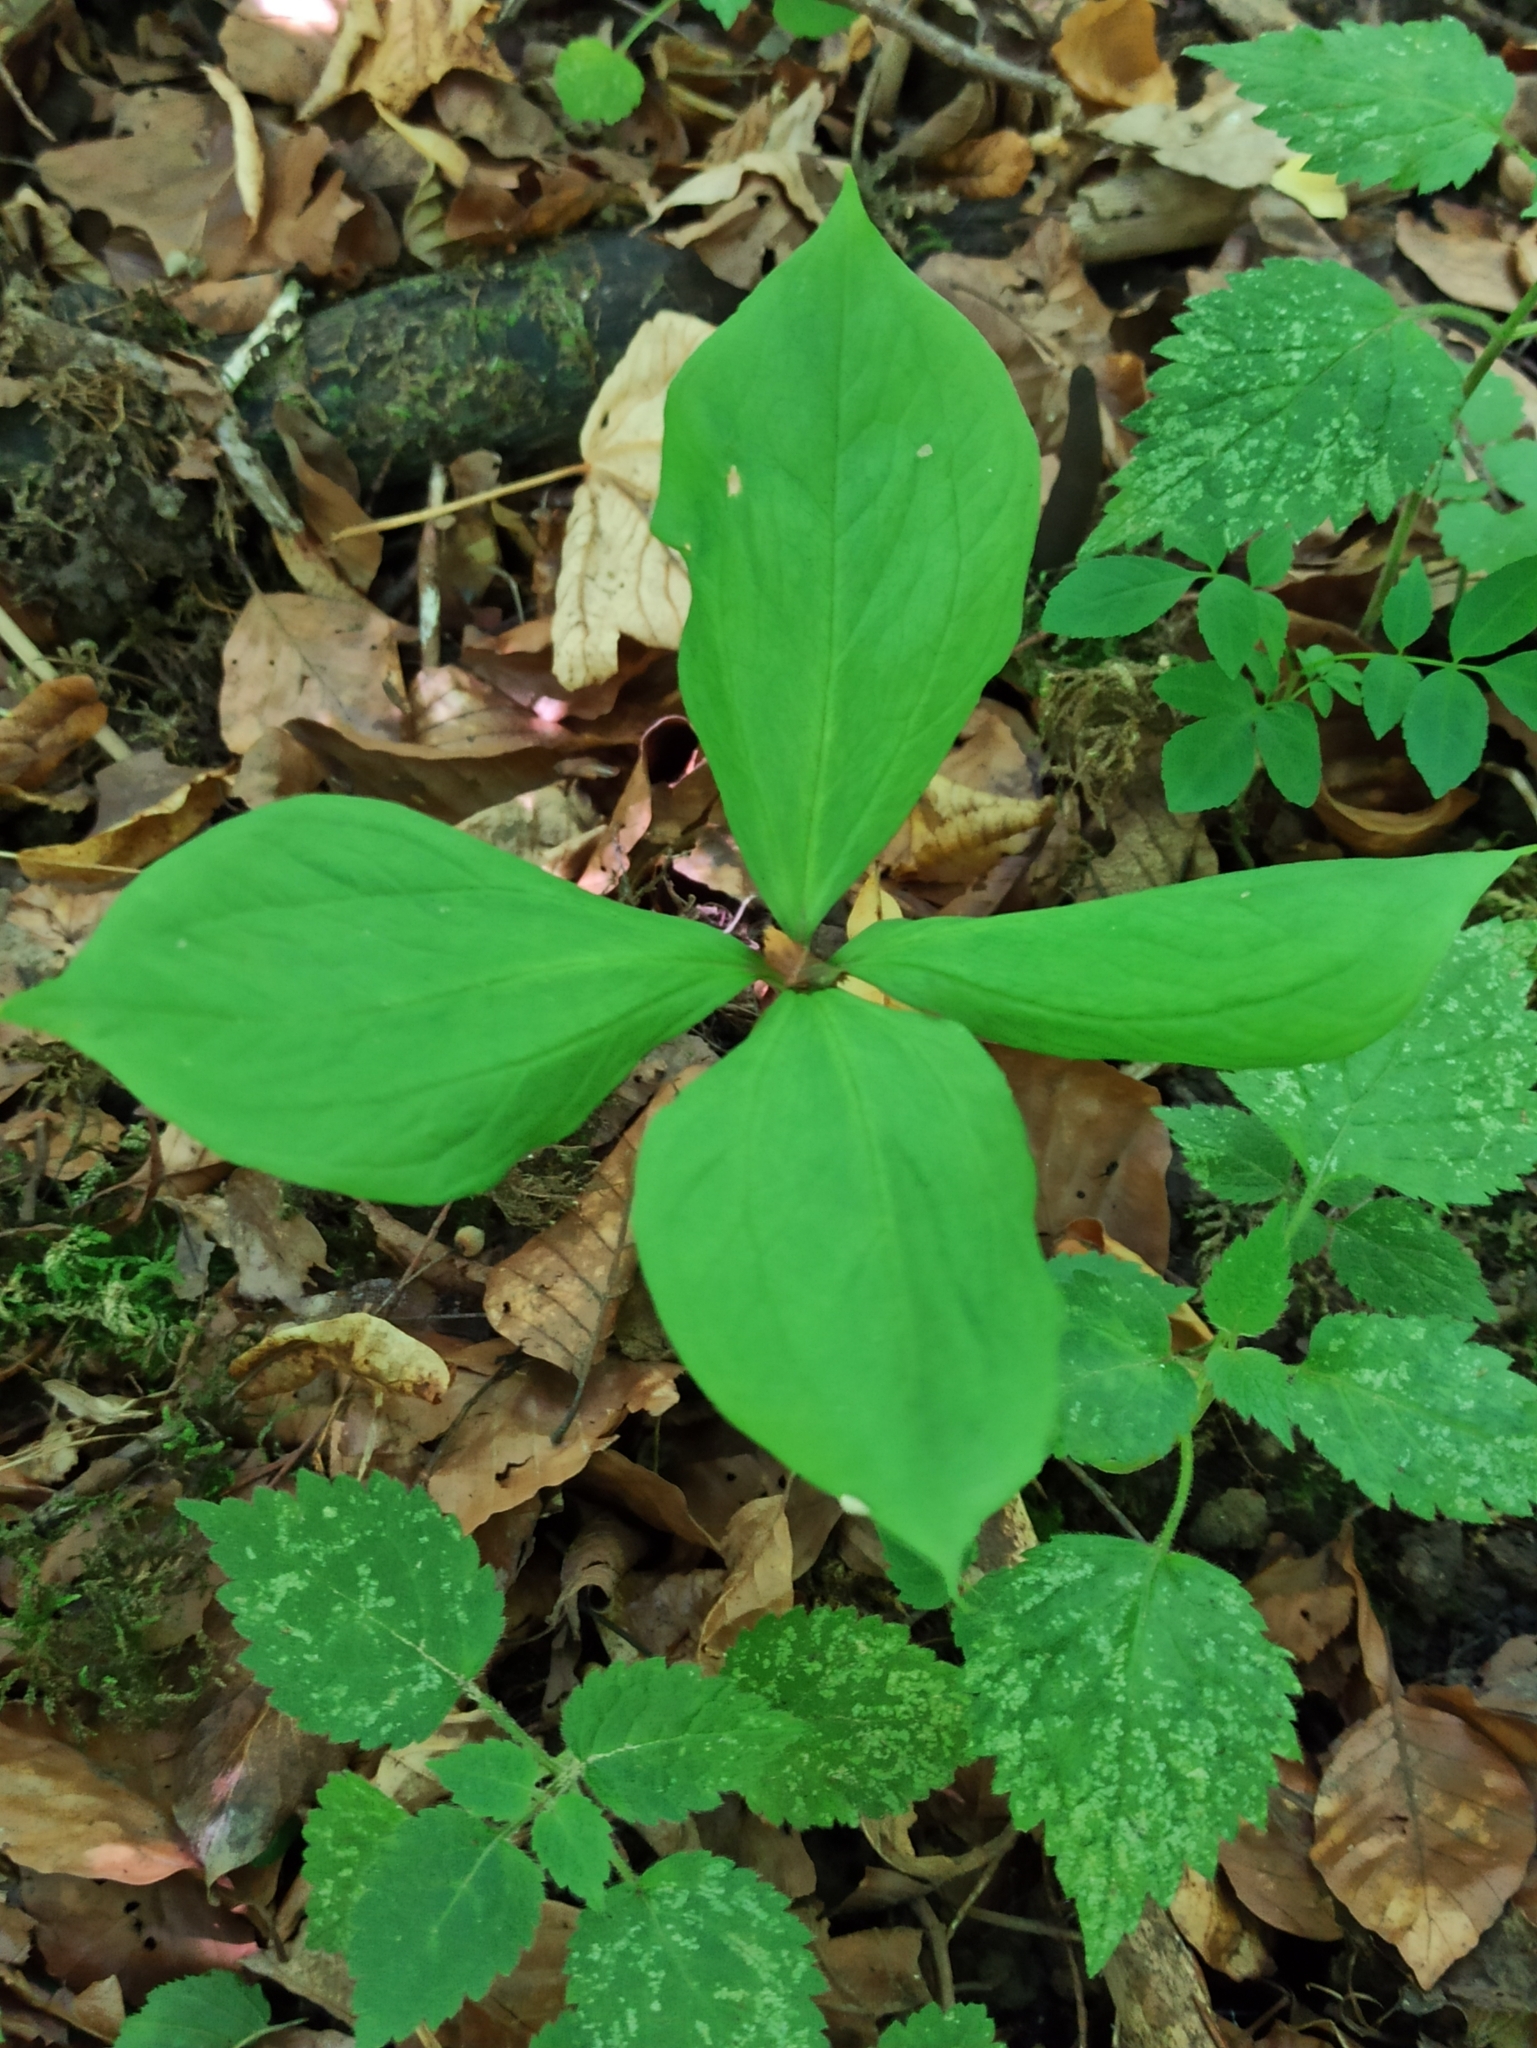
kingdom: Plantae
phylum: Tracheophyta
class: Liliopsida
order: Liliales
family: Melanthiaceae
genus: Paris
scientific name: Paris quadrifolia
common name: Herb-paris
